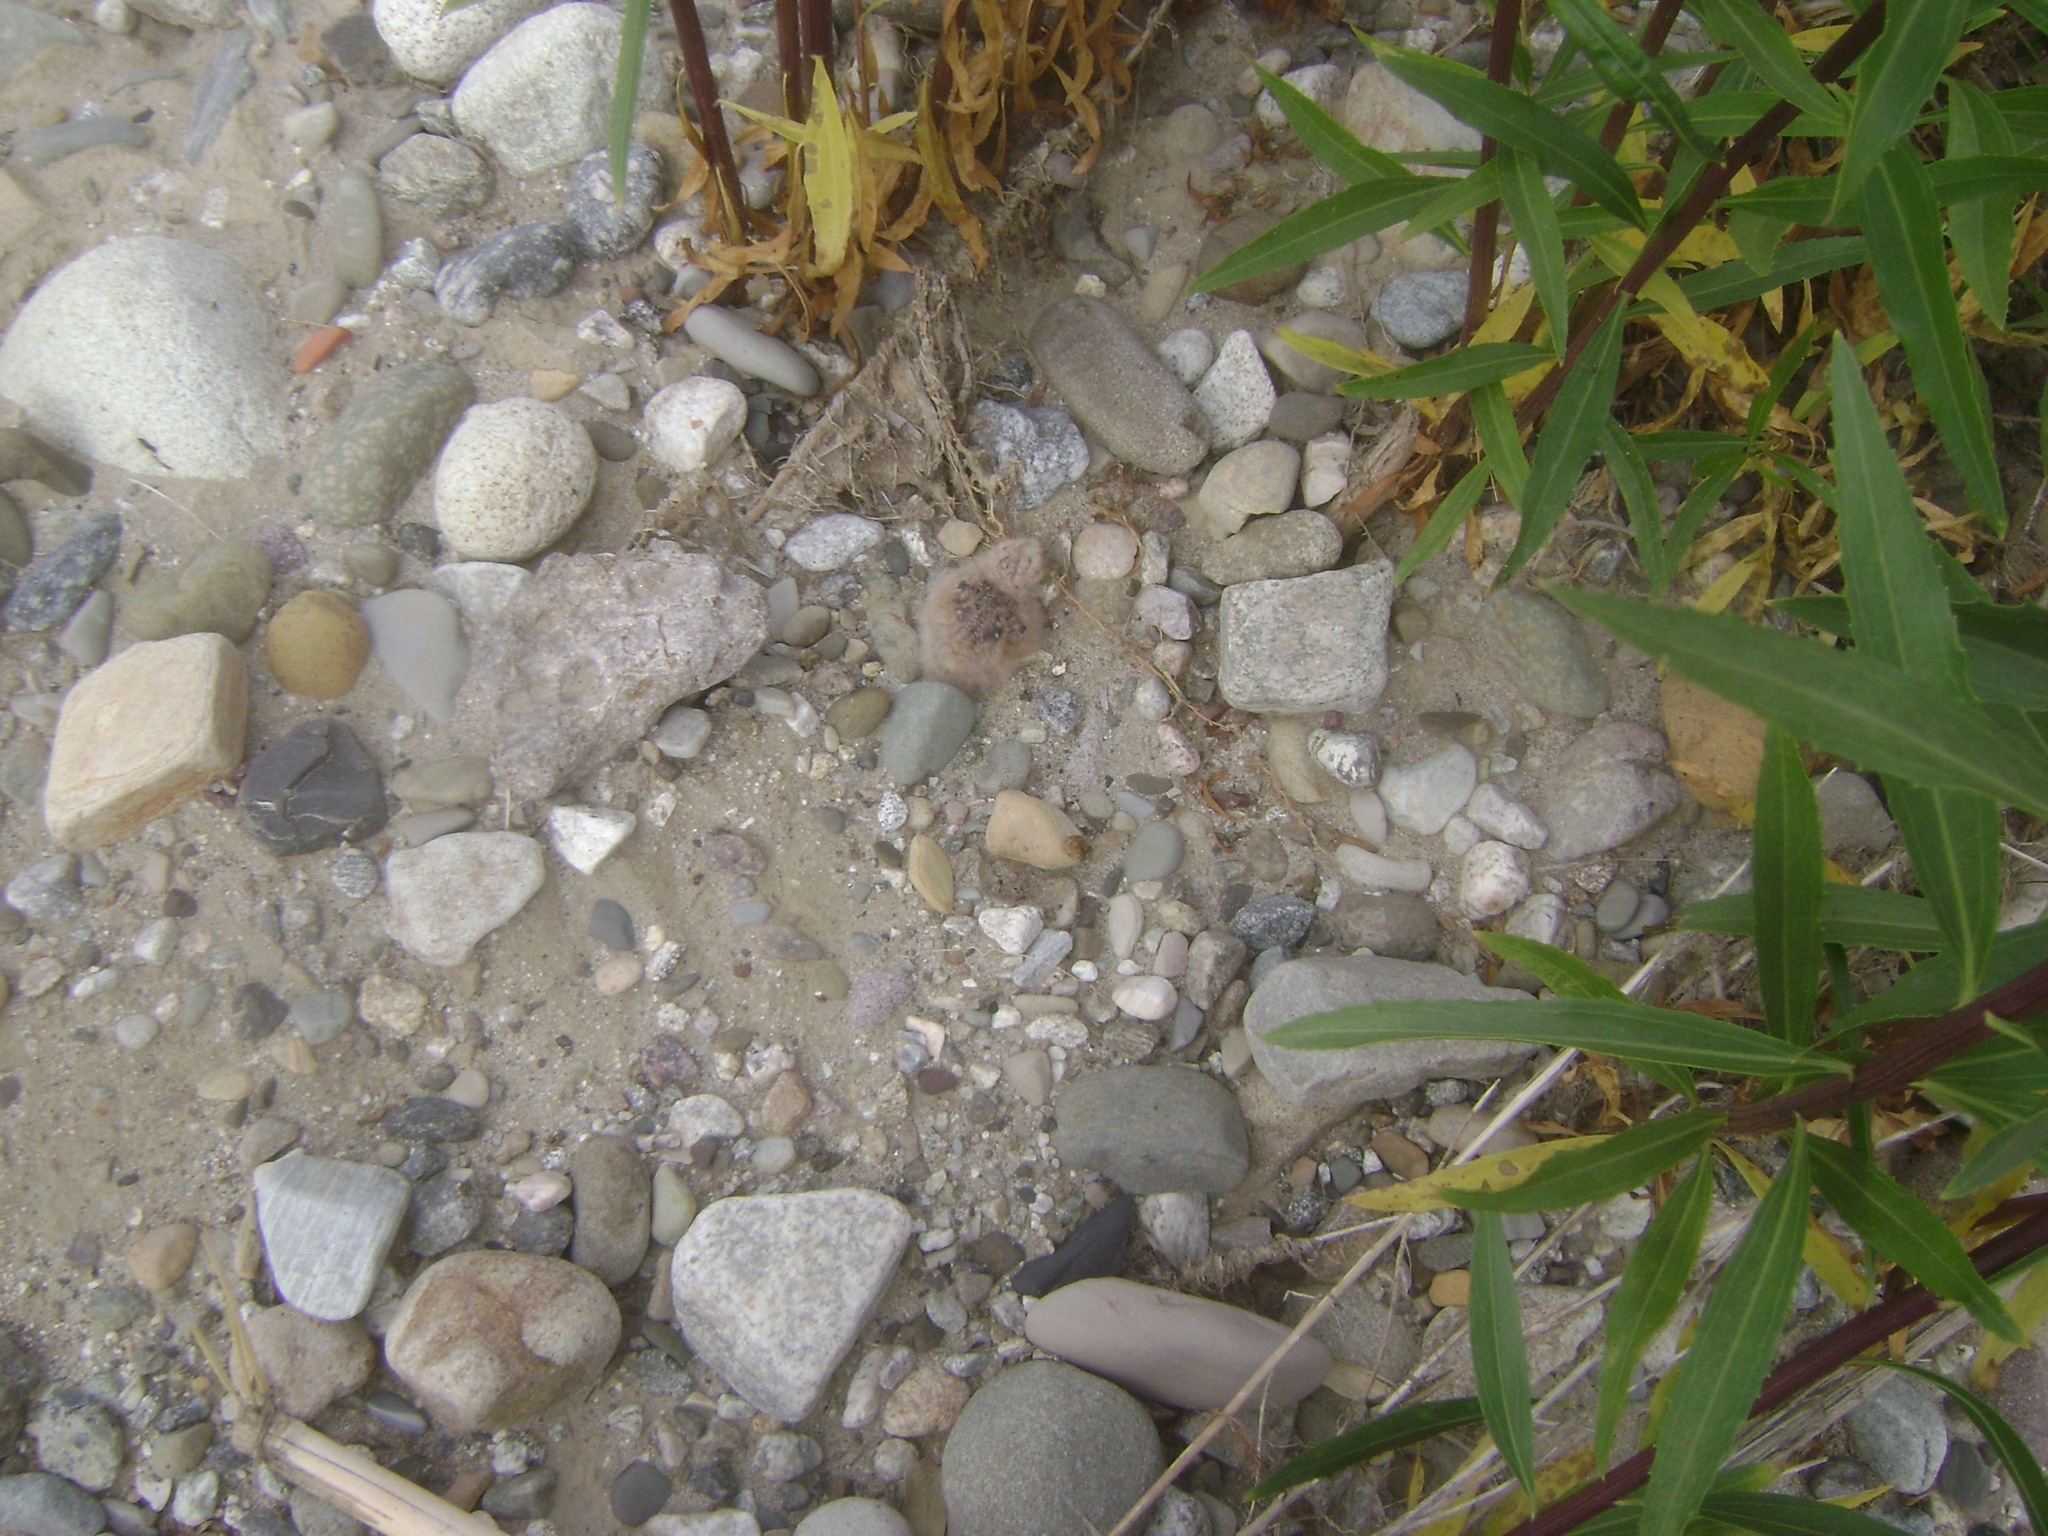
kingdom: Animalia
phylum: Chordata
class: Aves
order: Caprimulgiformes
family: Caprimulgidae
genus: Chordeiles
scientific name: Chordeiles acutipennis
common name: Lesser nighthawk
